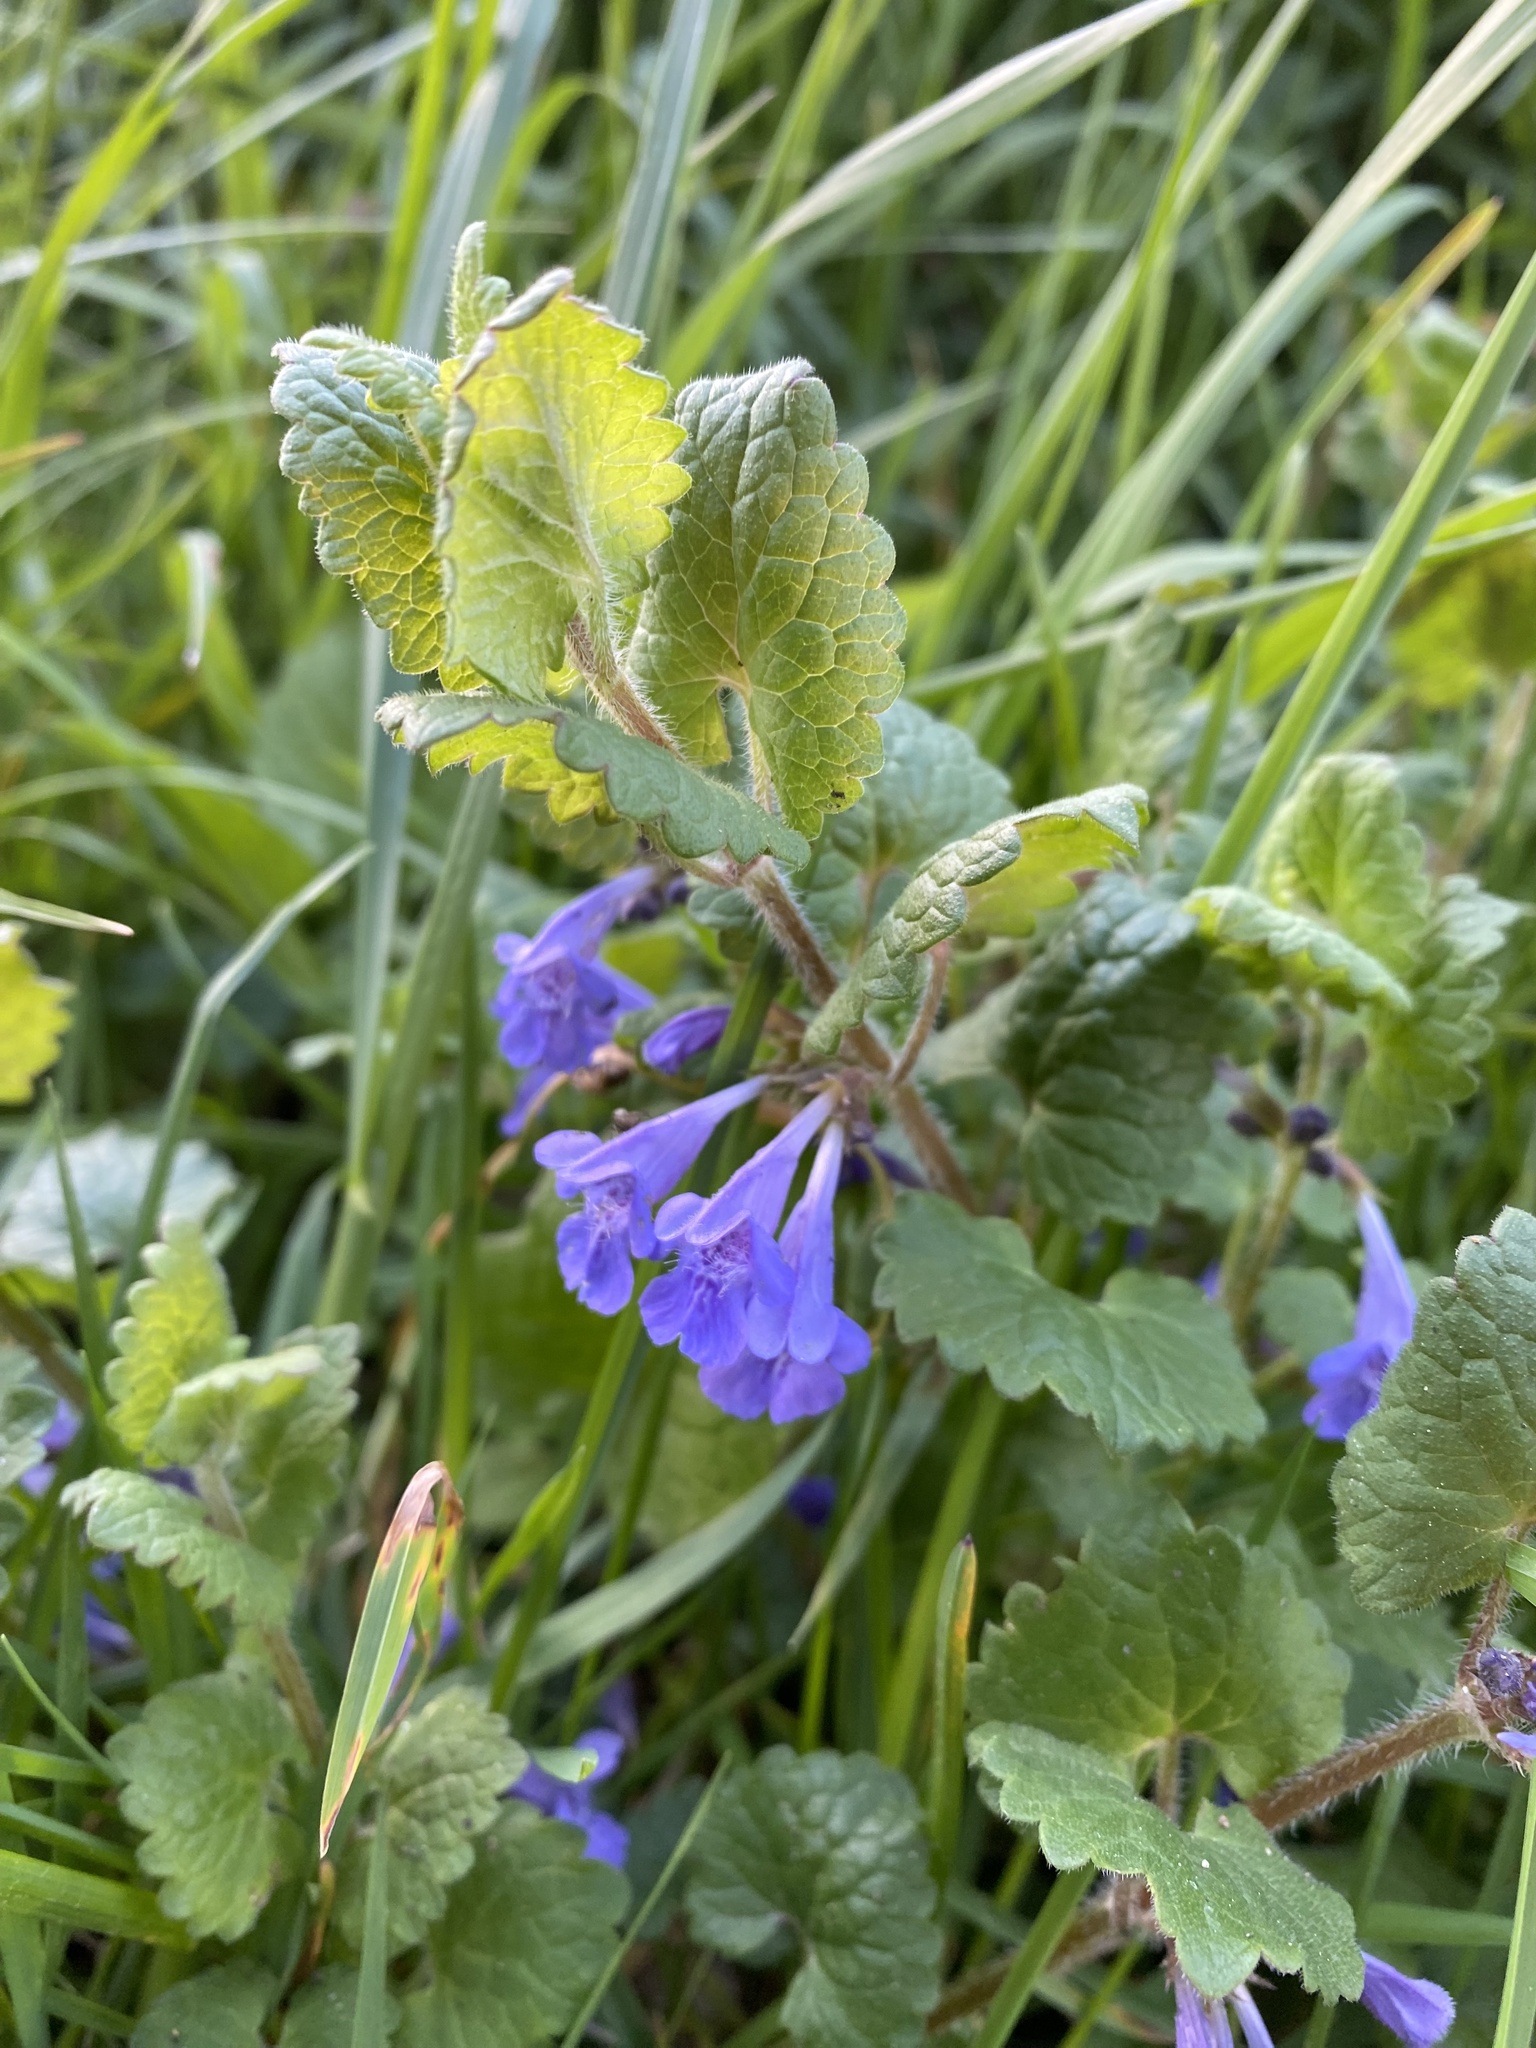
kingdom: Plantae
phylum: Tracheophyta
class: Magnoliopsida
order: Lamiales
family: Lamiaceae
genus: Glechoma
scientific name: Glechoma hederacea
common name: Ground ivy
